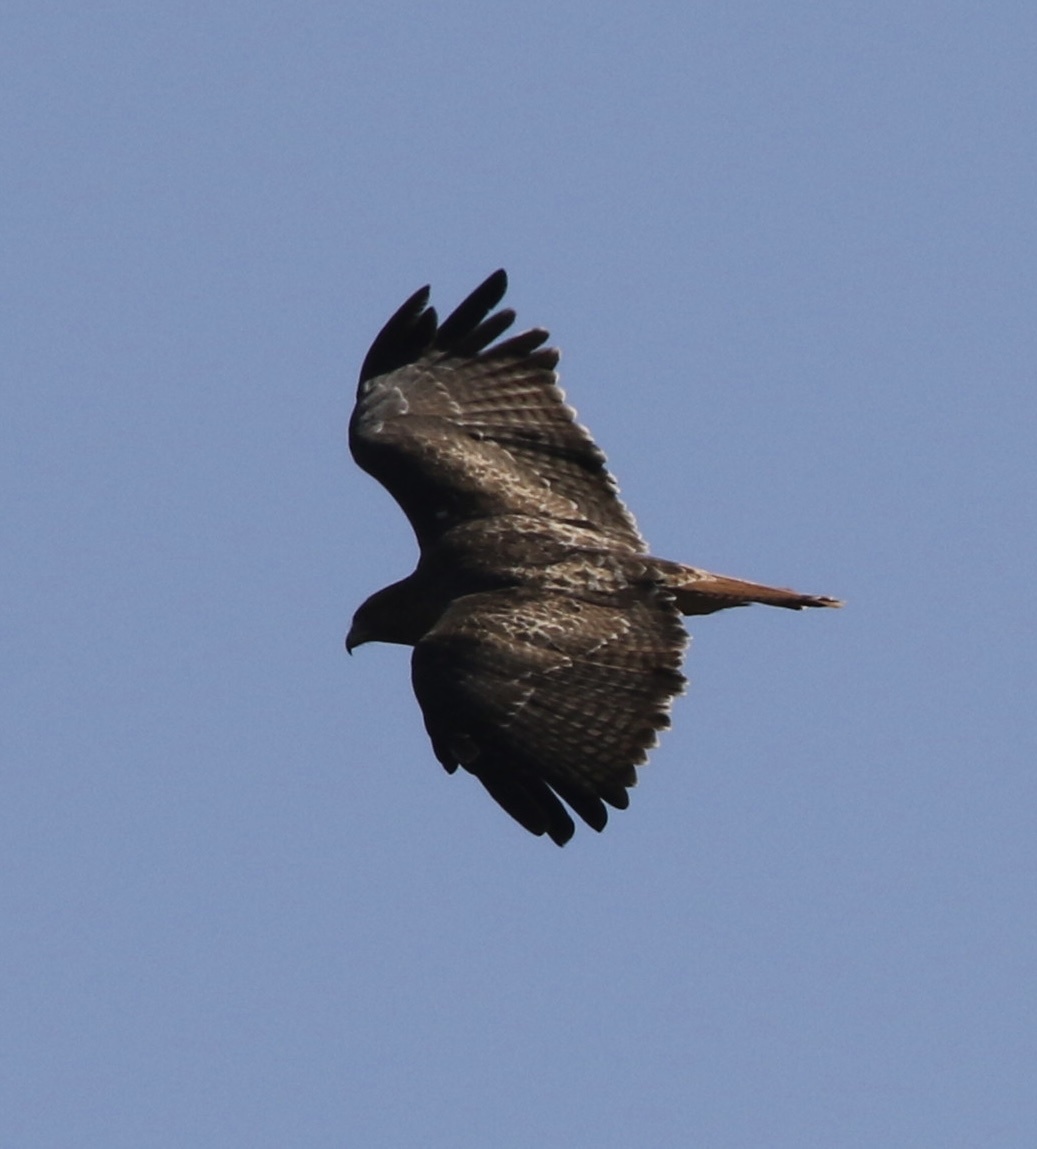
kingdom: Animalia
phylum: Chordata
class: Aves
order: Accipitriformes
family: Accipitridae
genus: Buteo
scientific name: Buteo jamaicensis
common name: Red-tailed hawk
